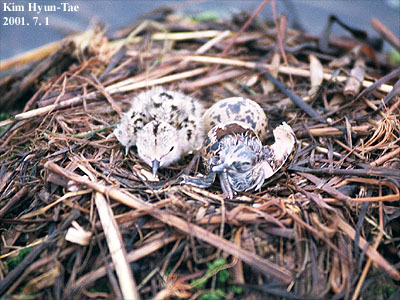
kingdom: Animalia
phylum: Chordata
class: Aves
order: Charadriiformes
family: Recurvirostridae
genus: Himantopus
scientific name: Himantopus himantopus
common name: Black-winged stilt
